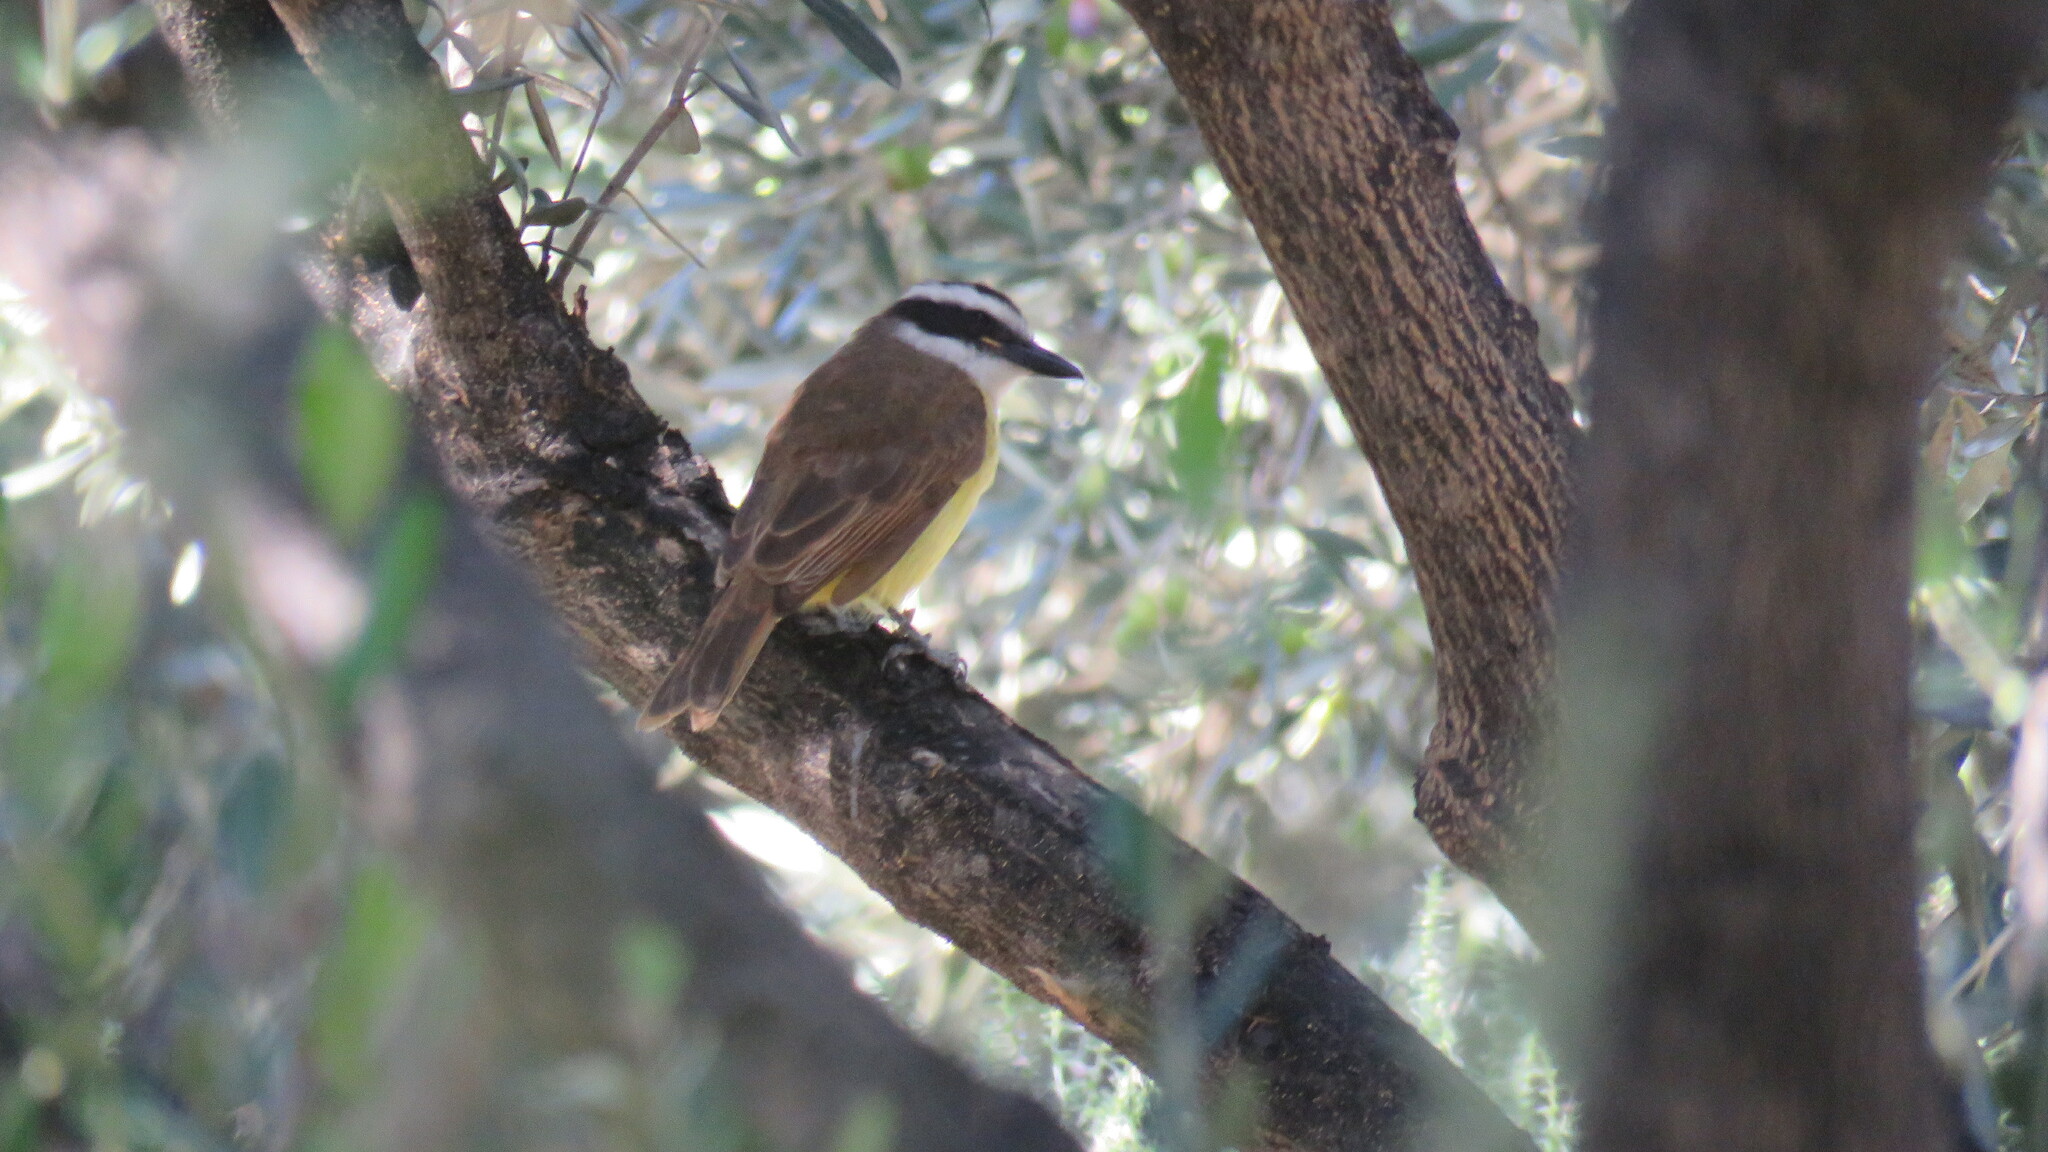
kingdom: Animalia
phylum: Chordata
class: Aves
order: Passeriformes
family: Tyrannidae
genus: Pitangus
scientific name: Pitangus sulphuratus
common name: Great kiskadee
